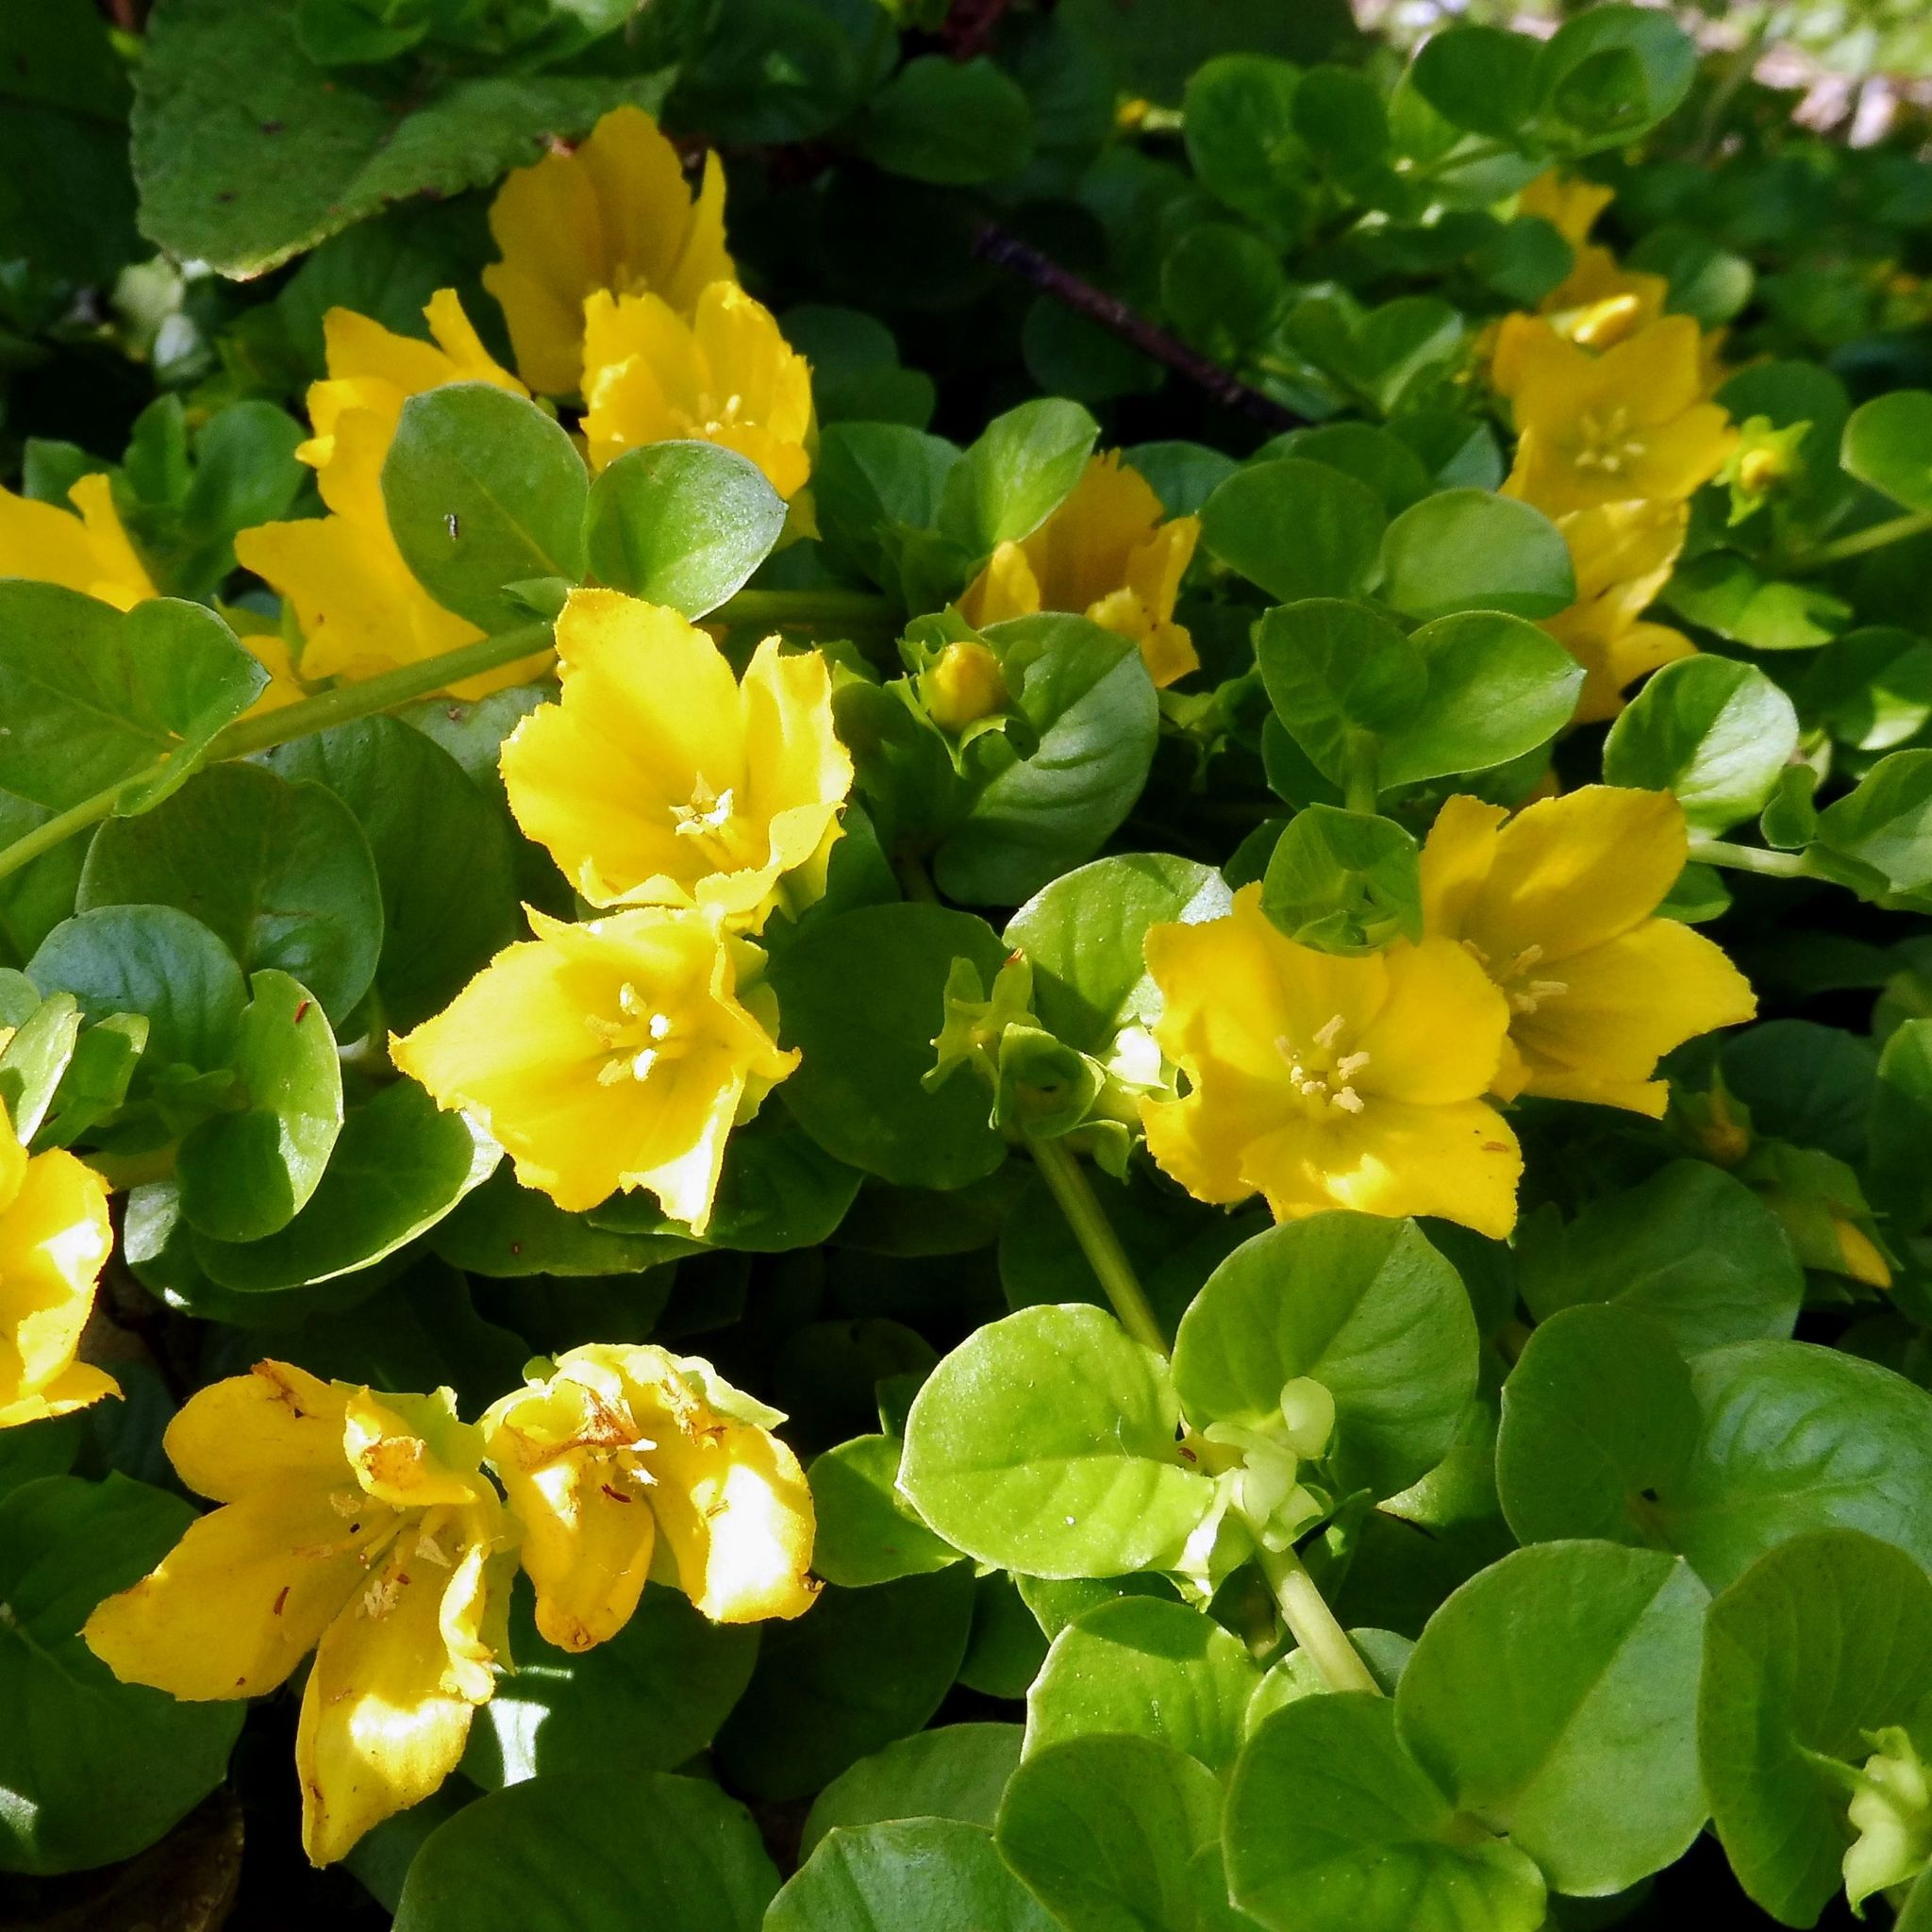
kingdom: Plantae
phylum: Tracheophyta
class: Magnoliopsida
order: Ericales
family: Primulaceae
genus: Lysimachia
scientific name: Lysimachia nummularia
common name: Moneywort
